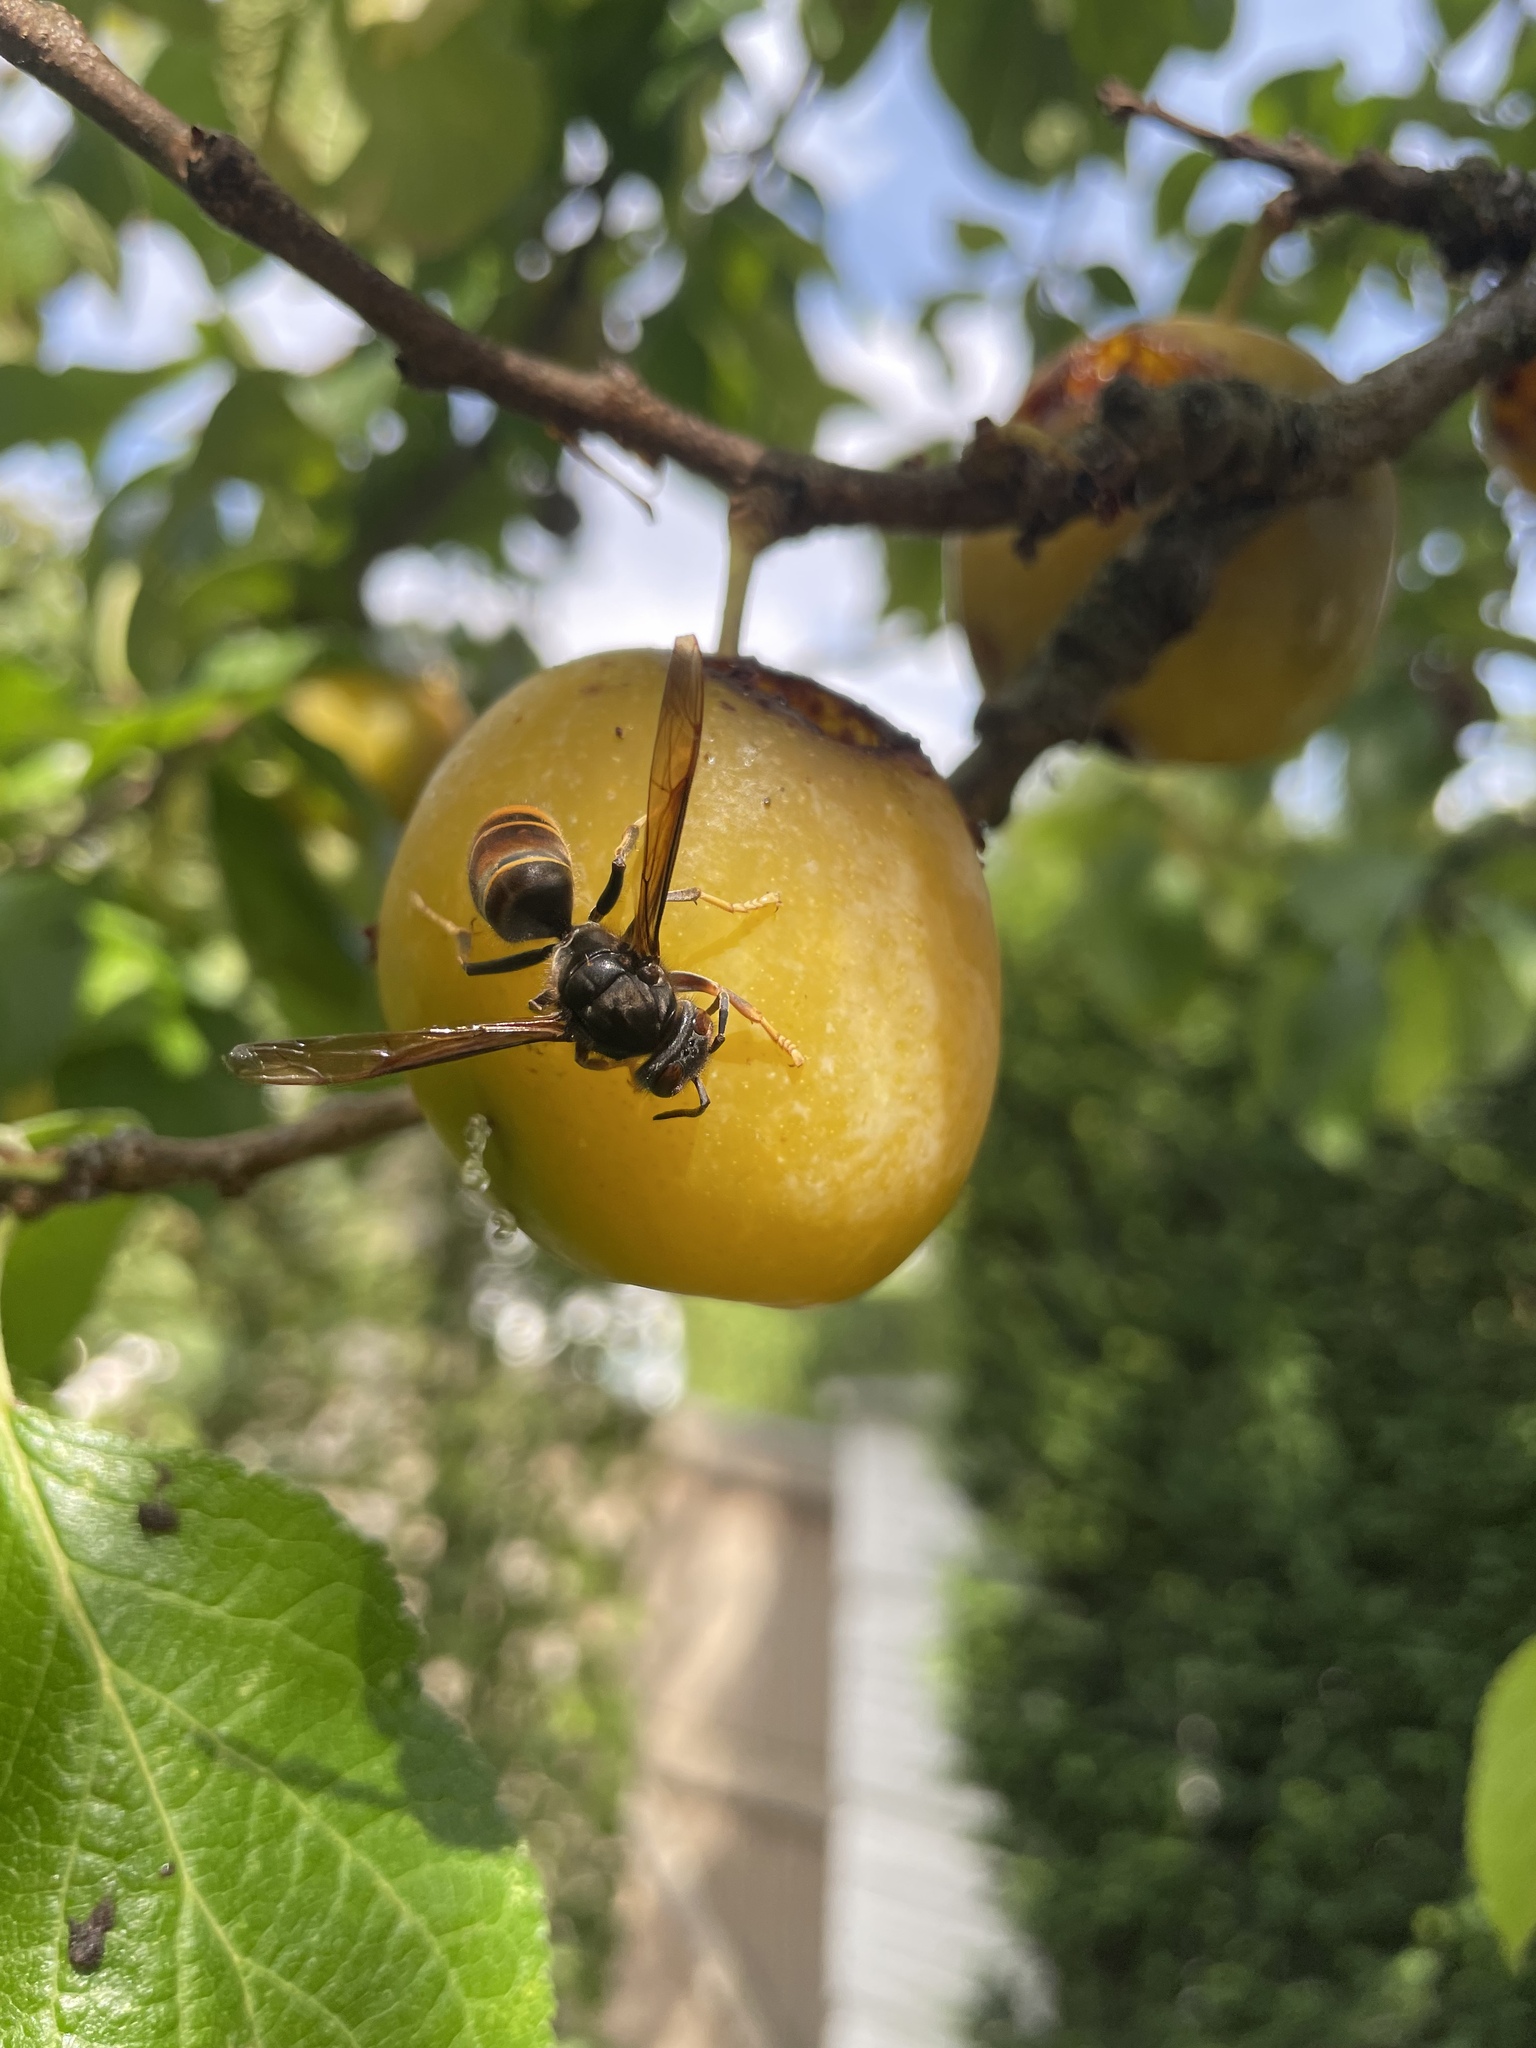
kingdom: Animalia
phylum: Arthropoda
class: Insecta
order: Hymenoptera
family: Vespidae
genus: Vespa
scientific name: Vespa velutina
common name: Asian hornet
